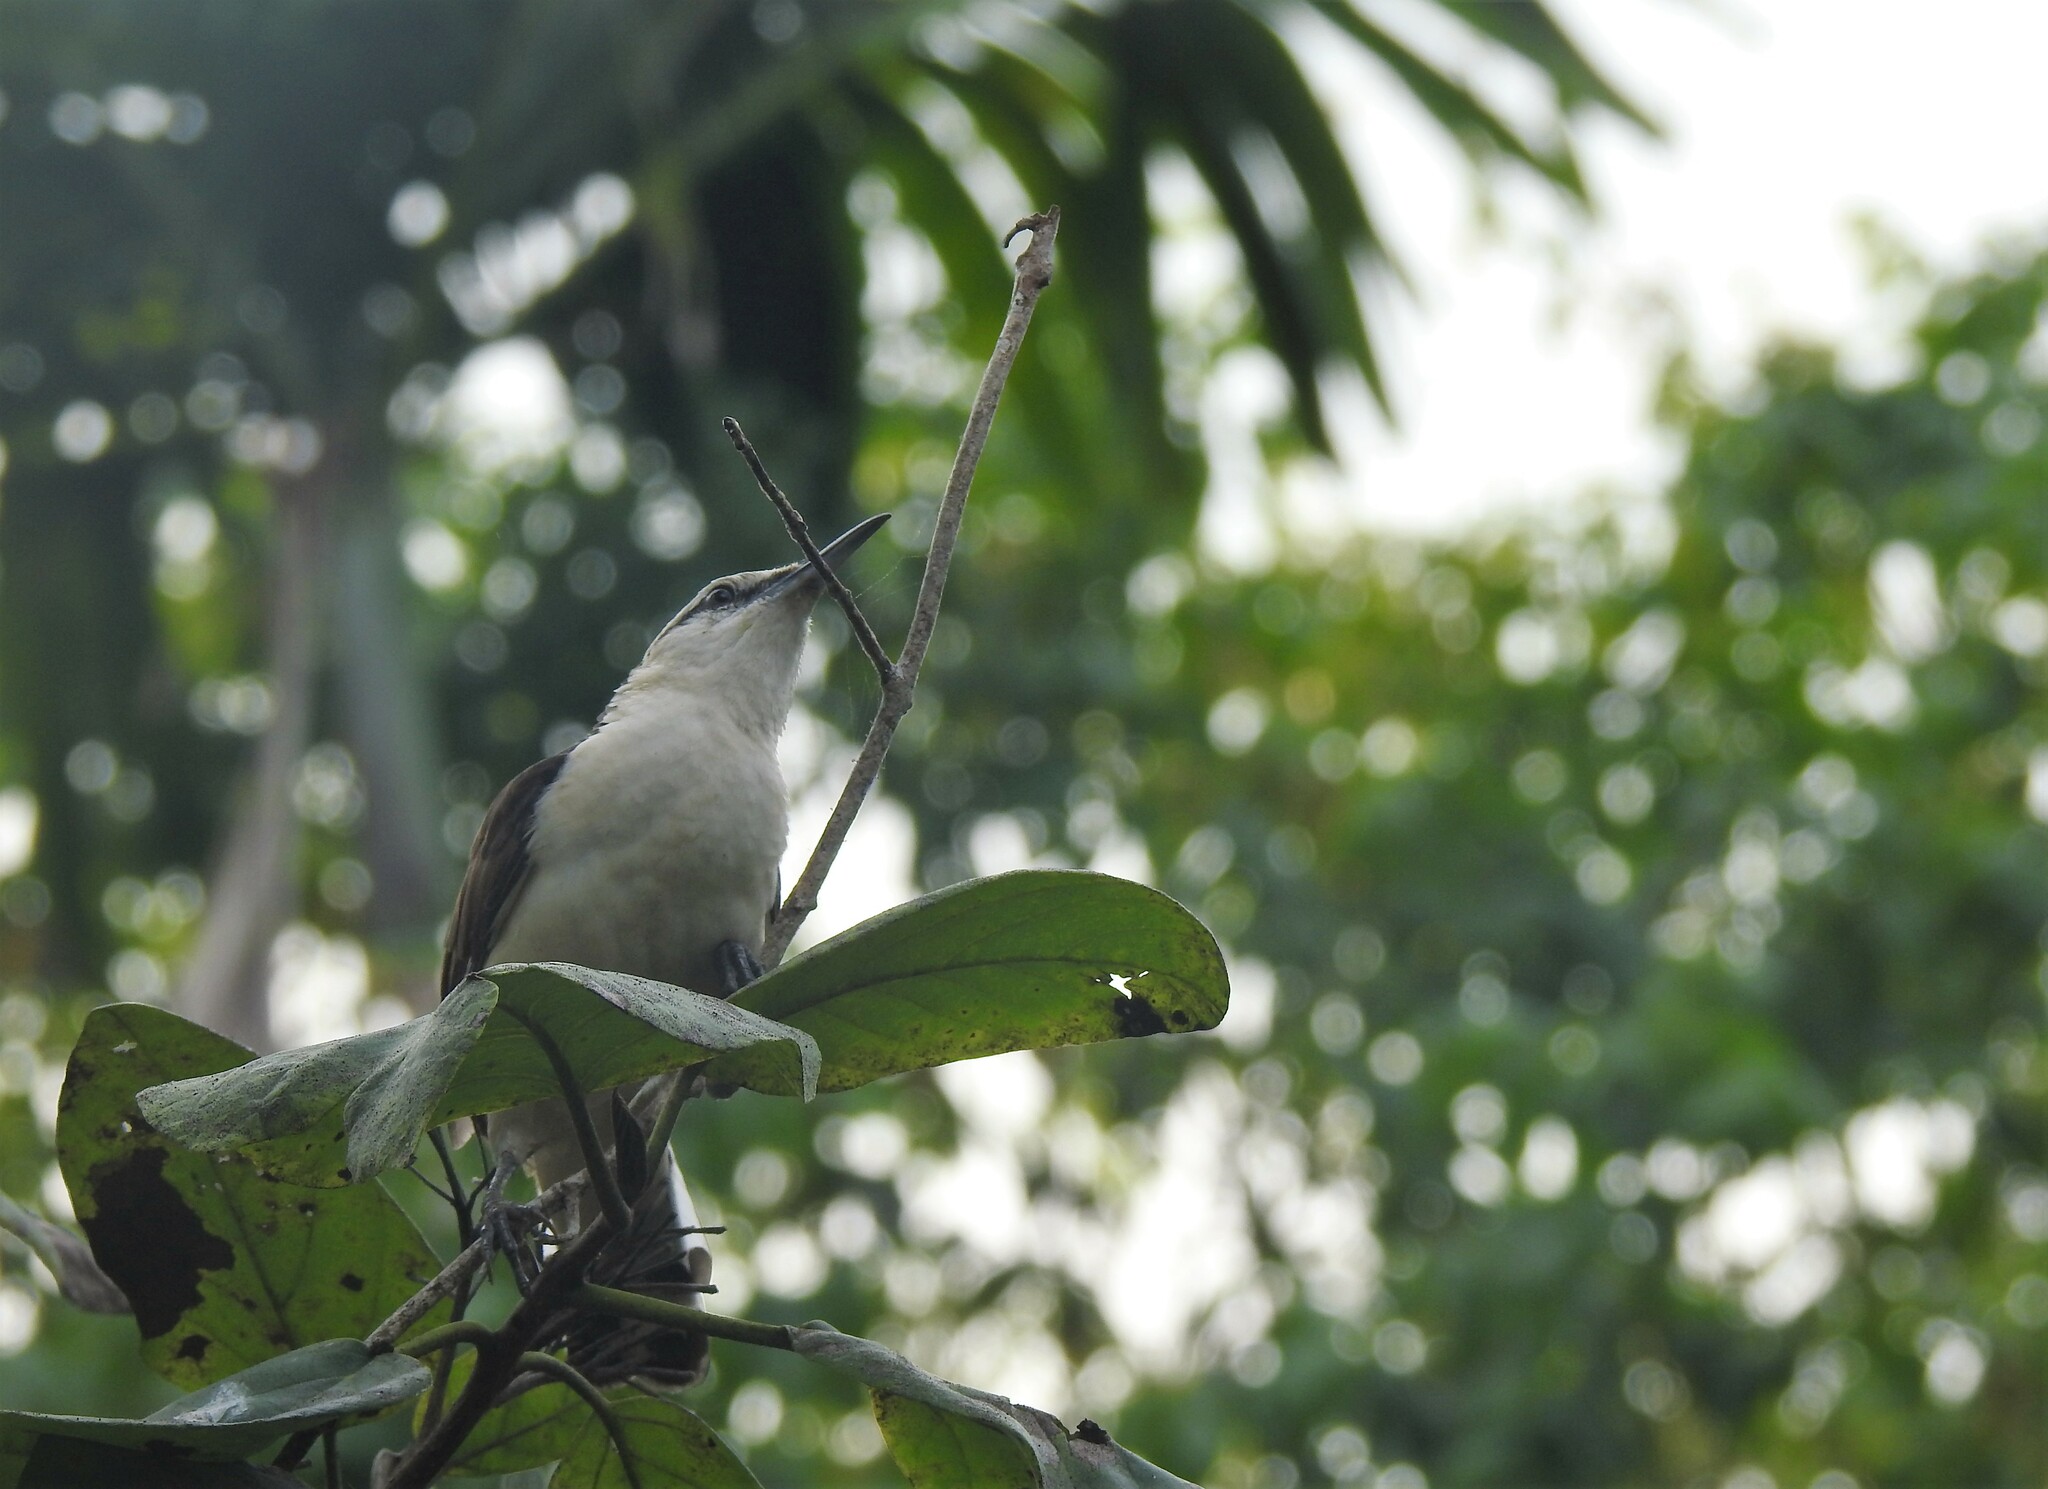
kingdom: Animalia
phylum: Chordata
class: Aves
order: Passeriformes
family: Troglodytidae
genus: Campylorhynchus
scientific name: Campylorhynchus griseus
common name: Bicolored wren
